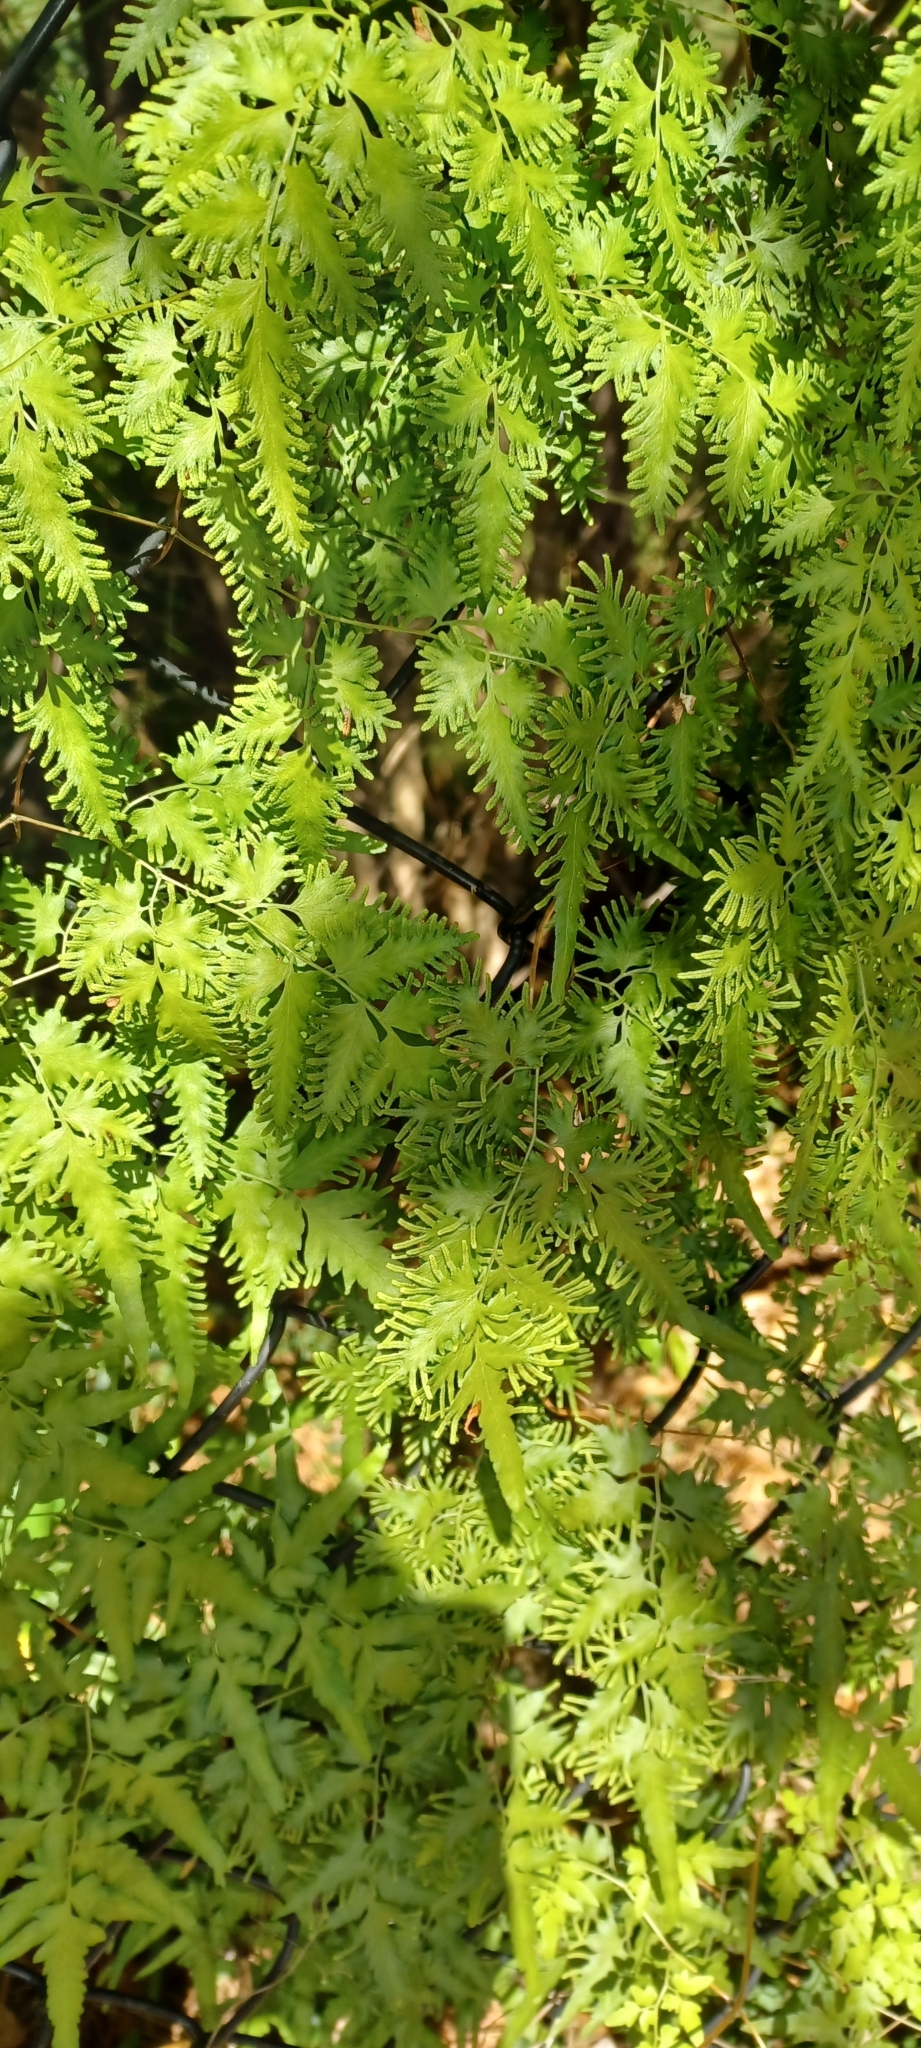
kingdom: Plantae
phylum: Tracheophyta
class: Polypodiopsida
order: Schizaeales
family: Lygodiaceae
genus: Lygodium
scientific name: Lygodium japonicum
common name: Japanese climbing fern
